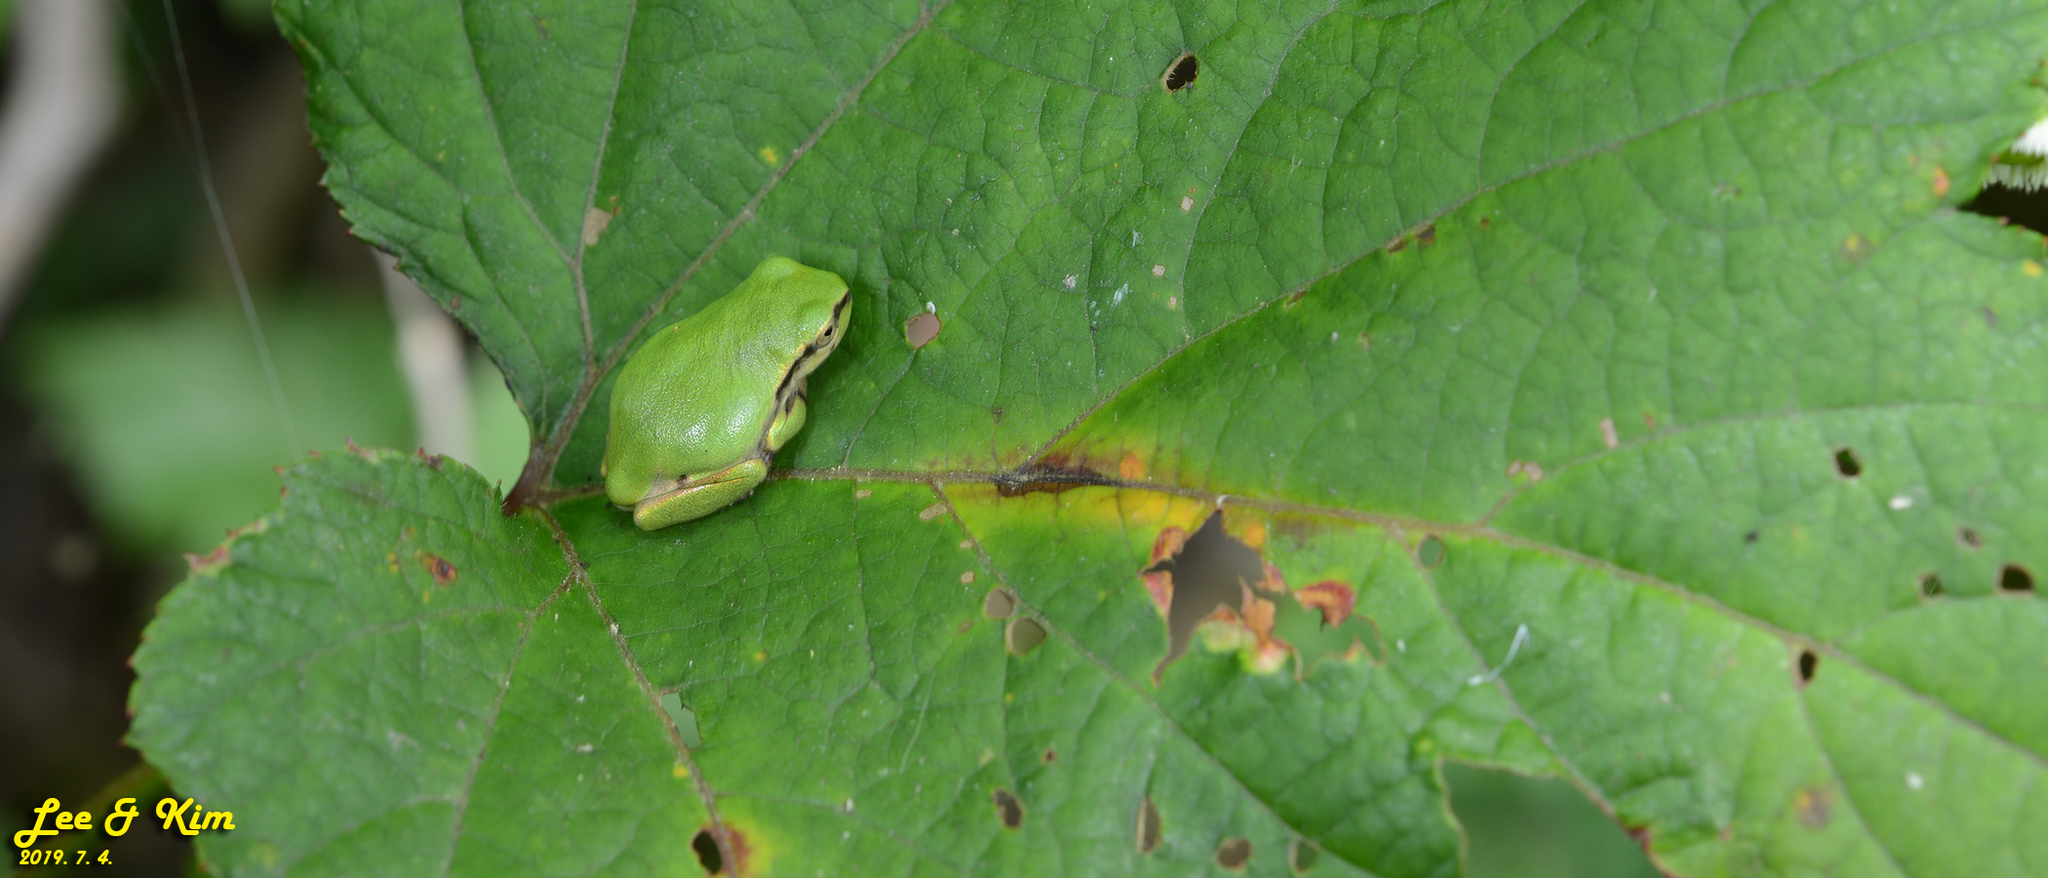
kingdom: Animalia
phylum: Chordata
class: Amphibia
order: Anura
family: Hylidae
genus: Dryophytes
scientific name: Dryophytes japonicus
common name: Japanese treefrog
